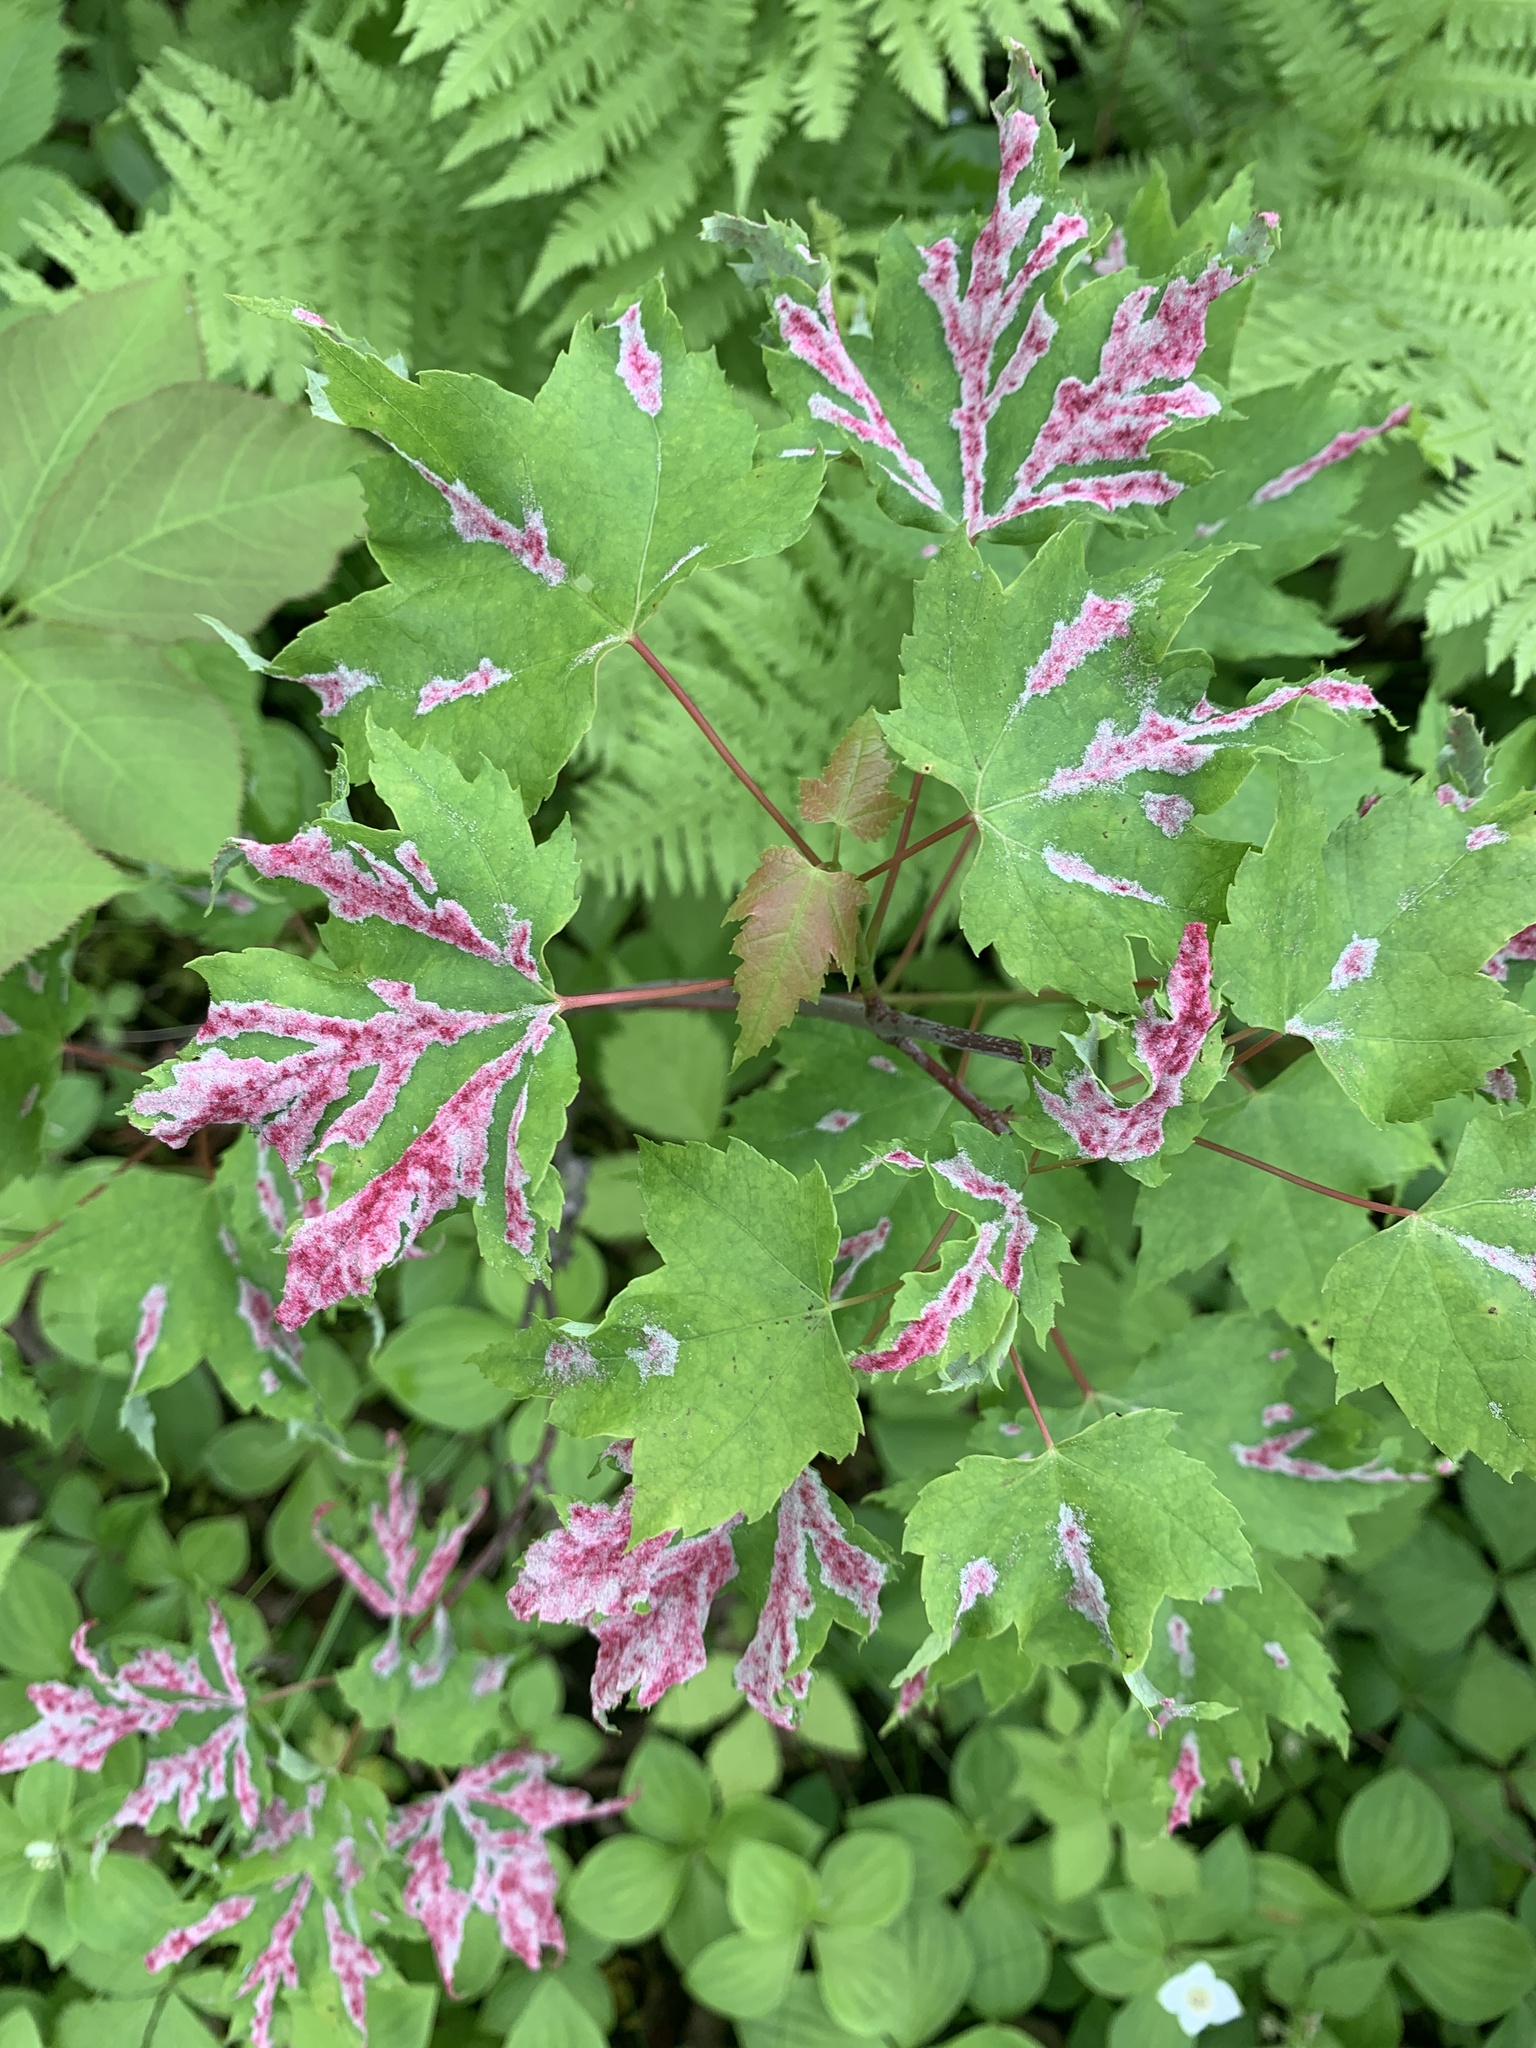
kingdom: Animalia
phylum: Arthropoda
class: Arachnida
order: Trombidiformes
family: Eriophyidae
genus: Aculus
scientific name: Aculus
